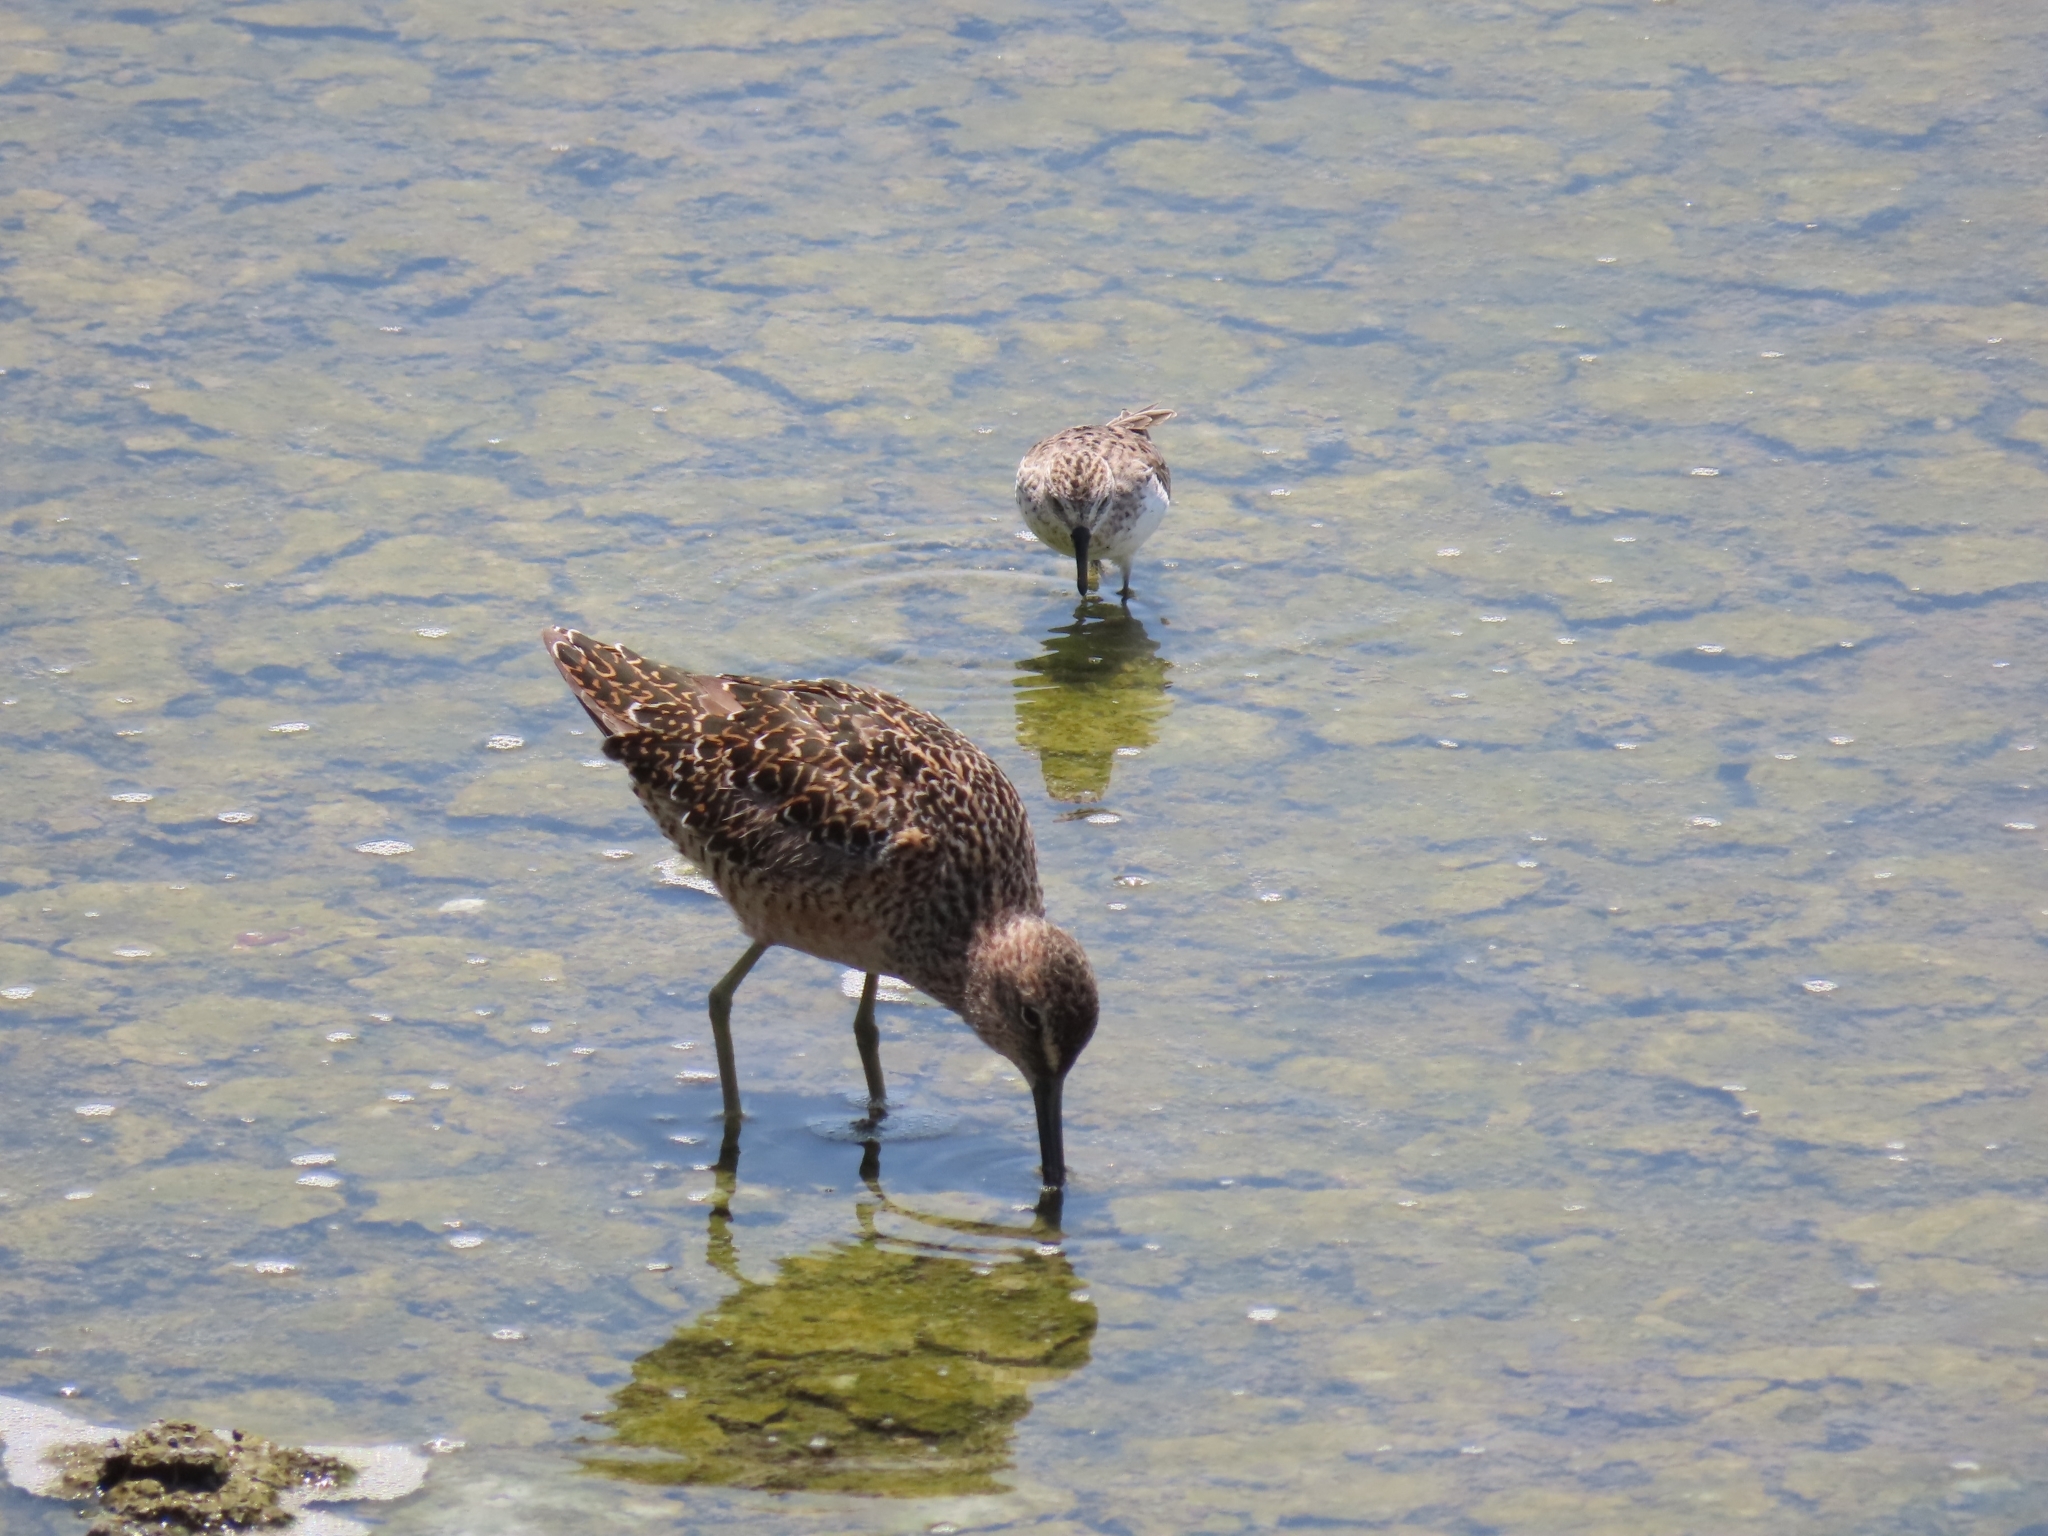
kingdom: Animalia
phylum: Chordata
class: Aves
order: Charadriiformes
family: Scolopacidae
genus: Limnodromus
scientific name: Limnodromus scolopaceus
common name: Long-billed dowitcher
